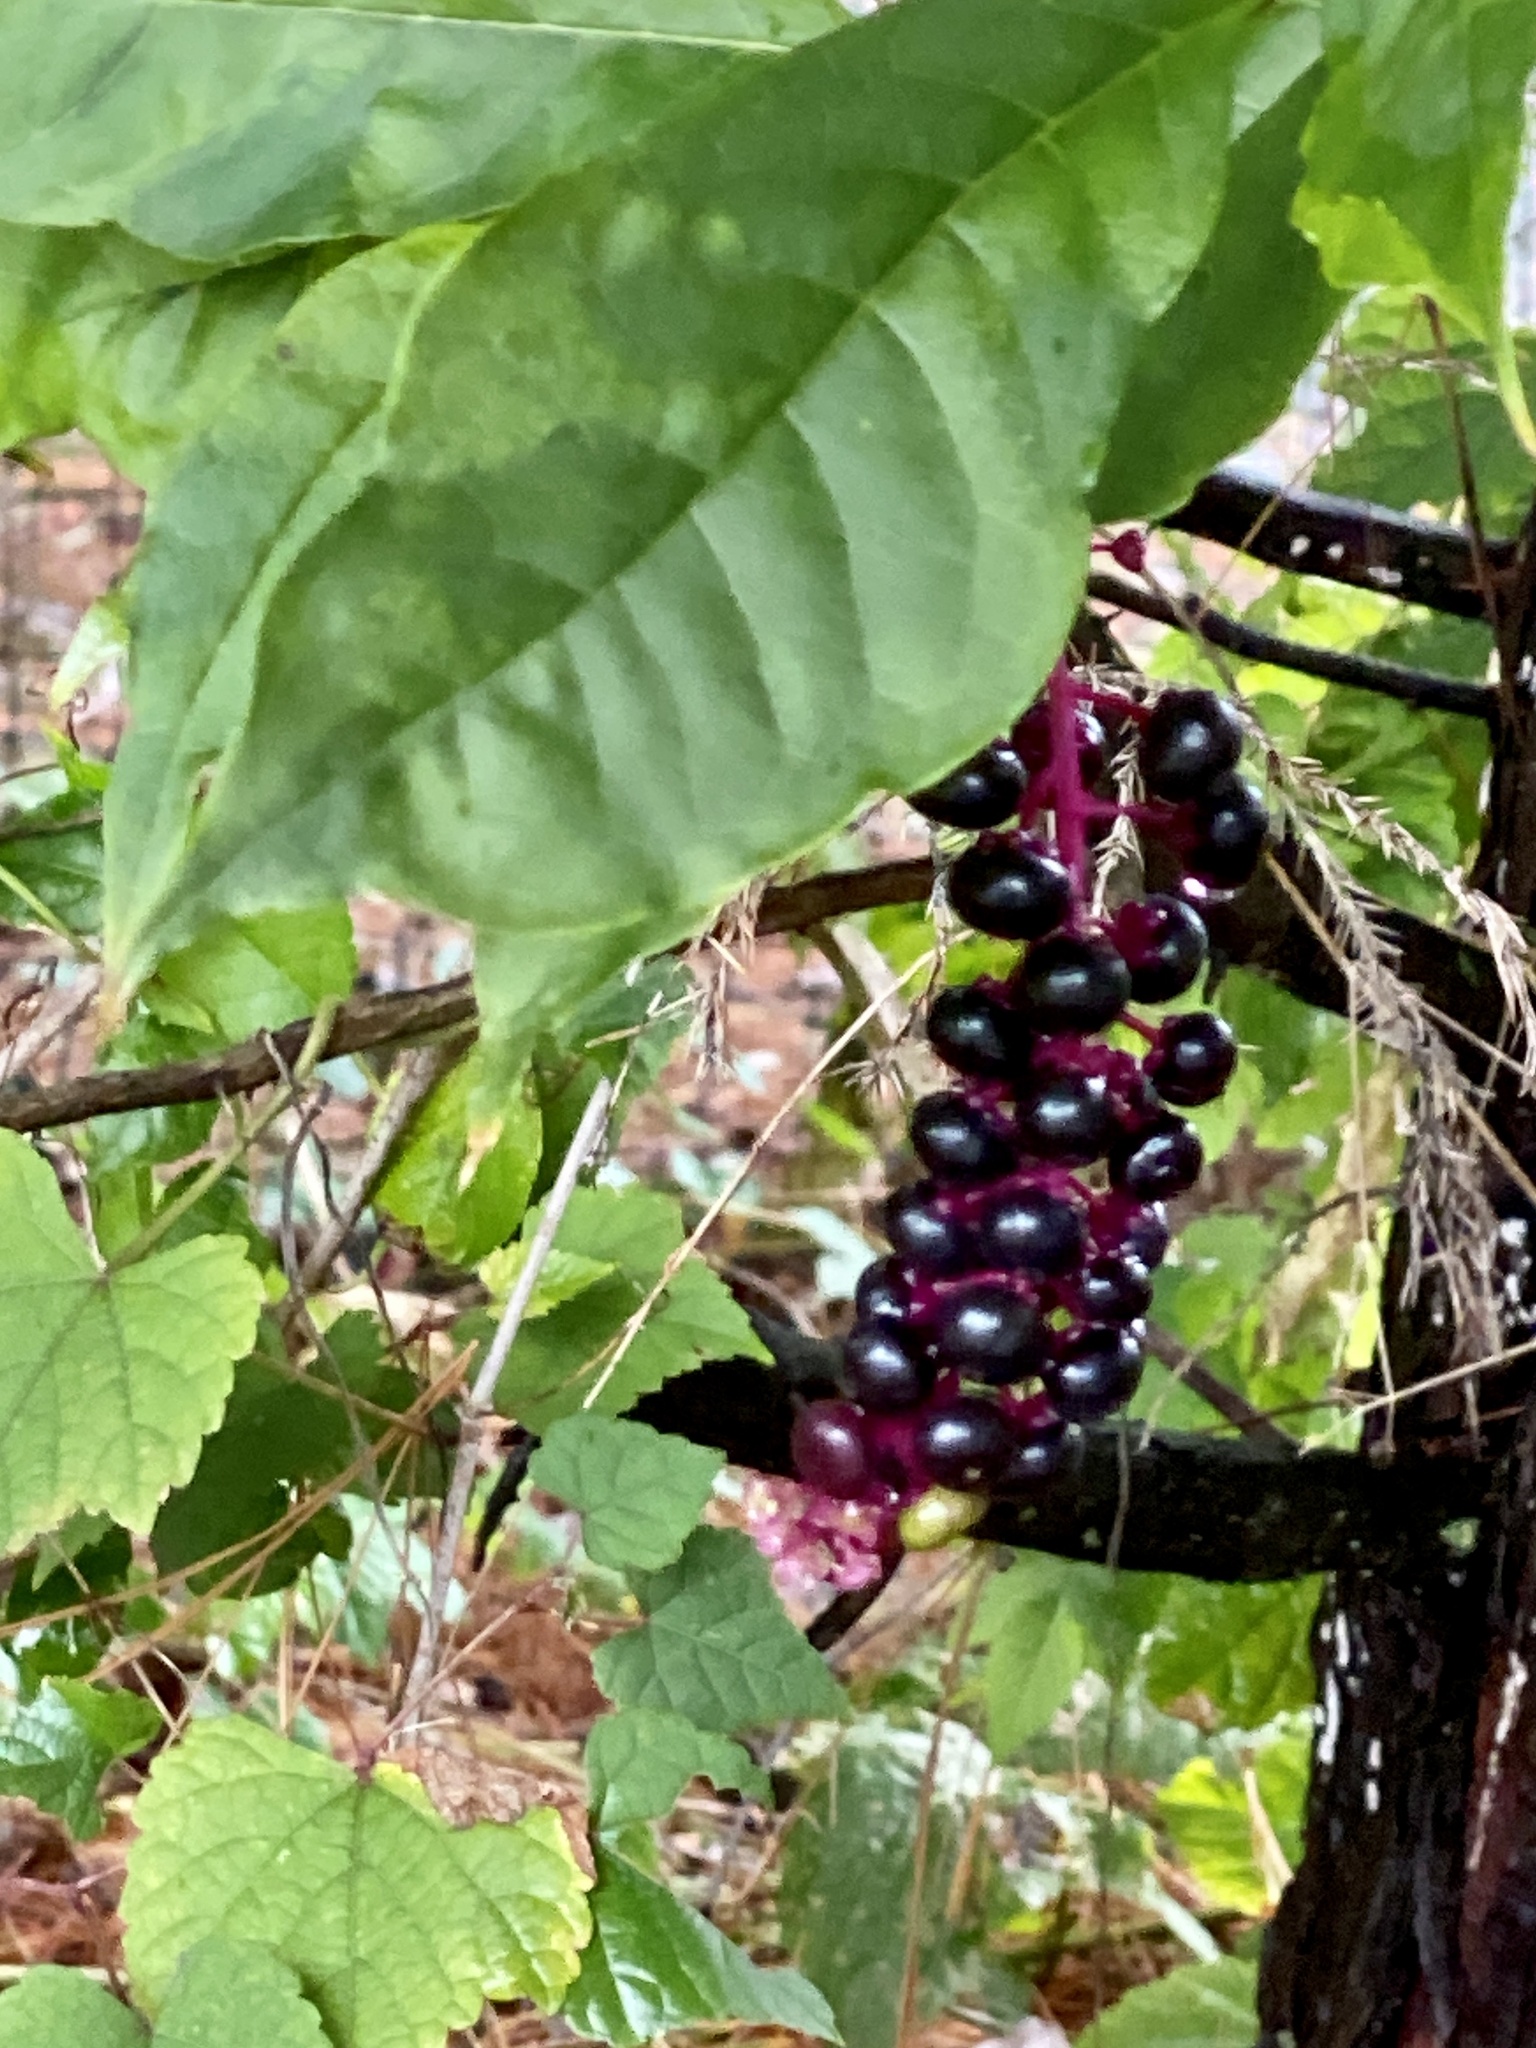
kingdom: Plantae
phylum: Tracheophyta
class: Magnoliopsida
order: Caryophyllales
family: Phytolaccaceae
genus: Phytolacca
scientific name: Phytolacca americana
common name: American pokeweed
